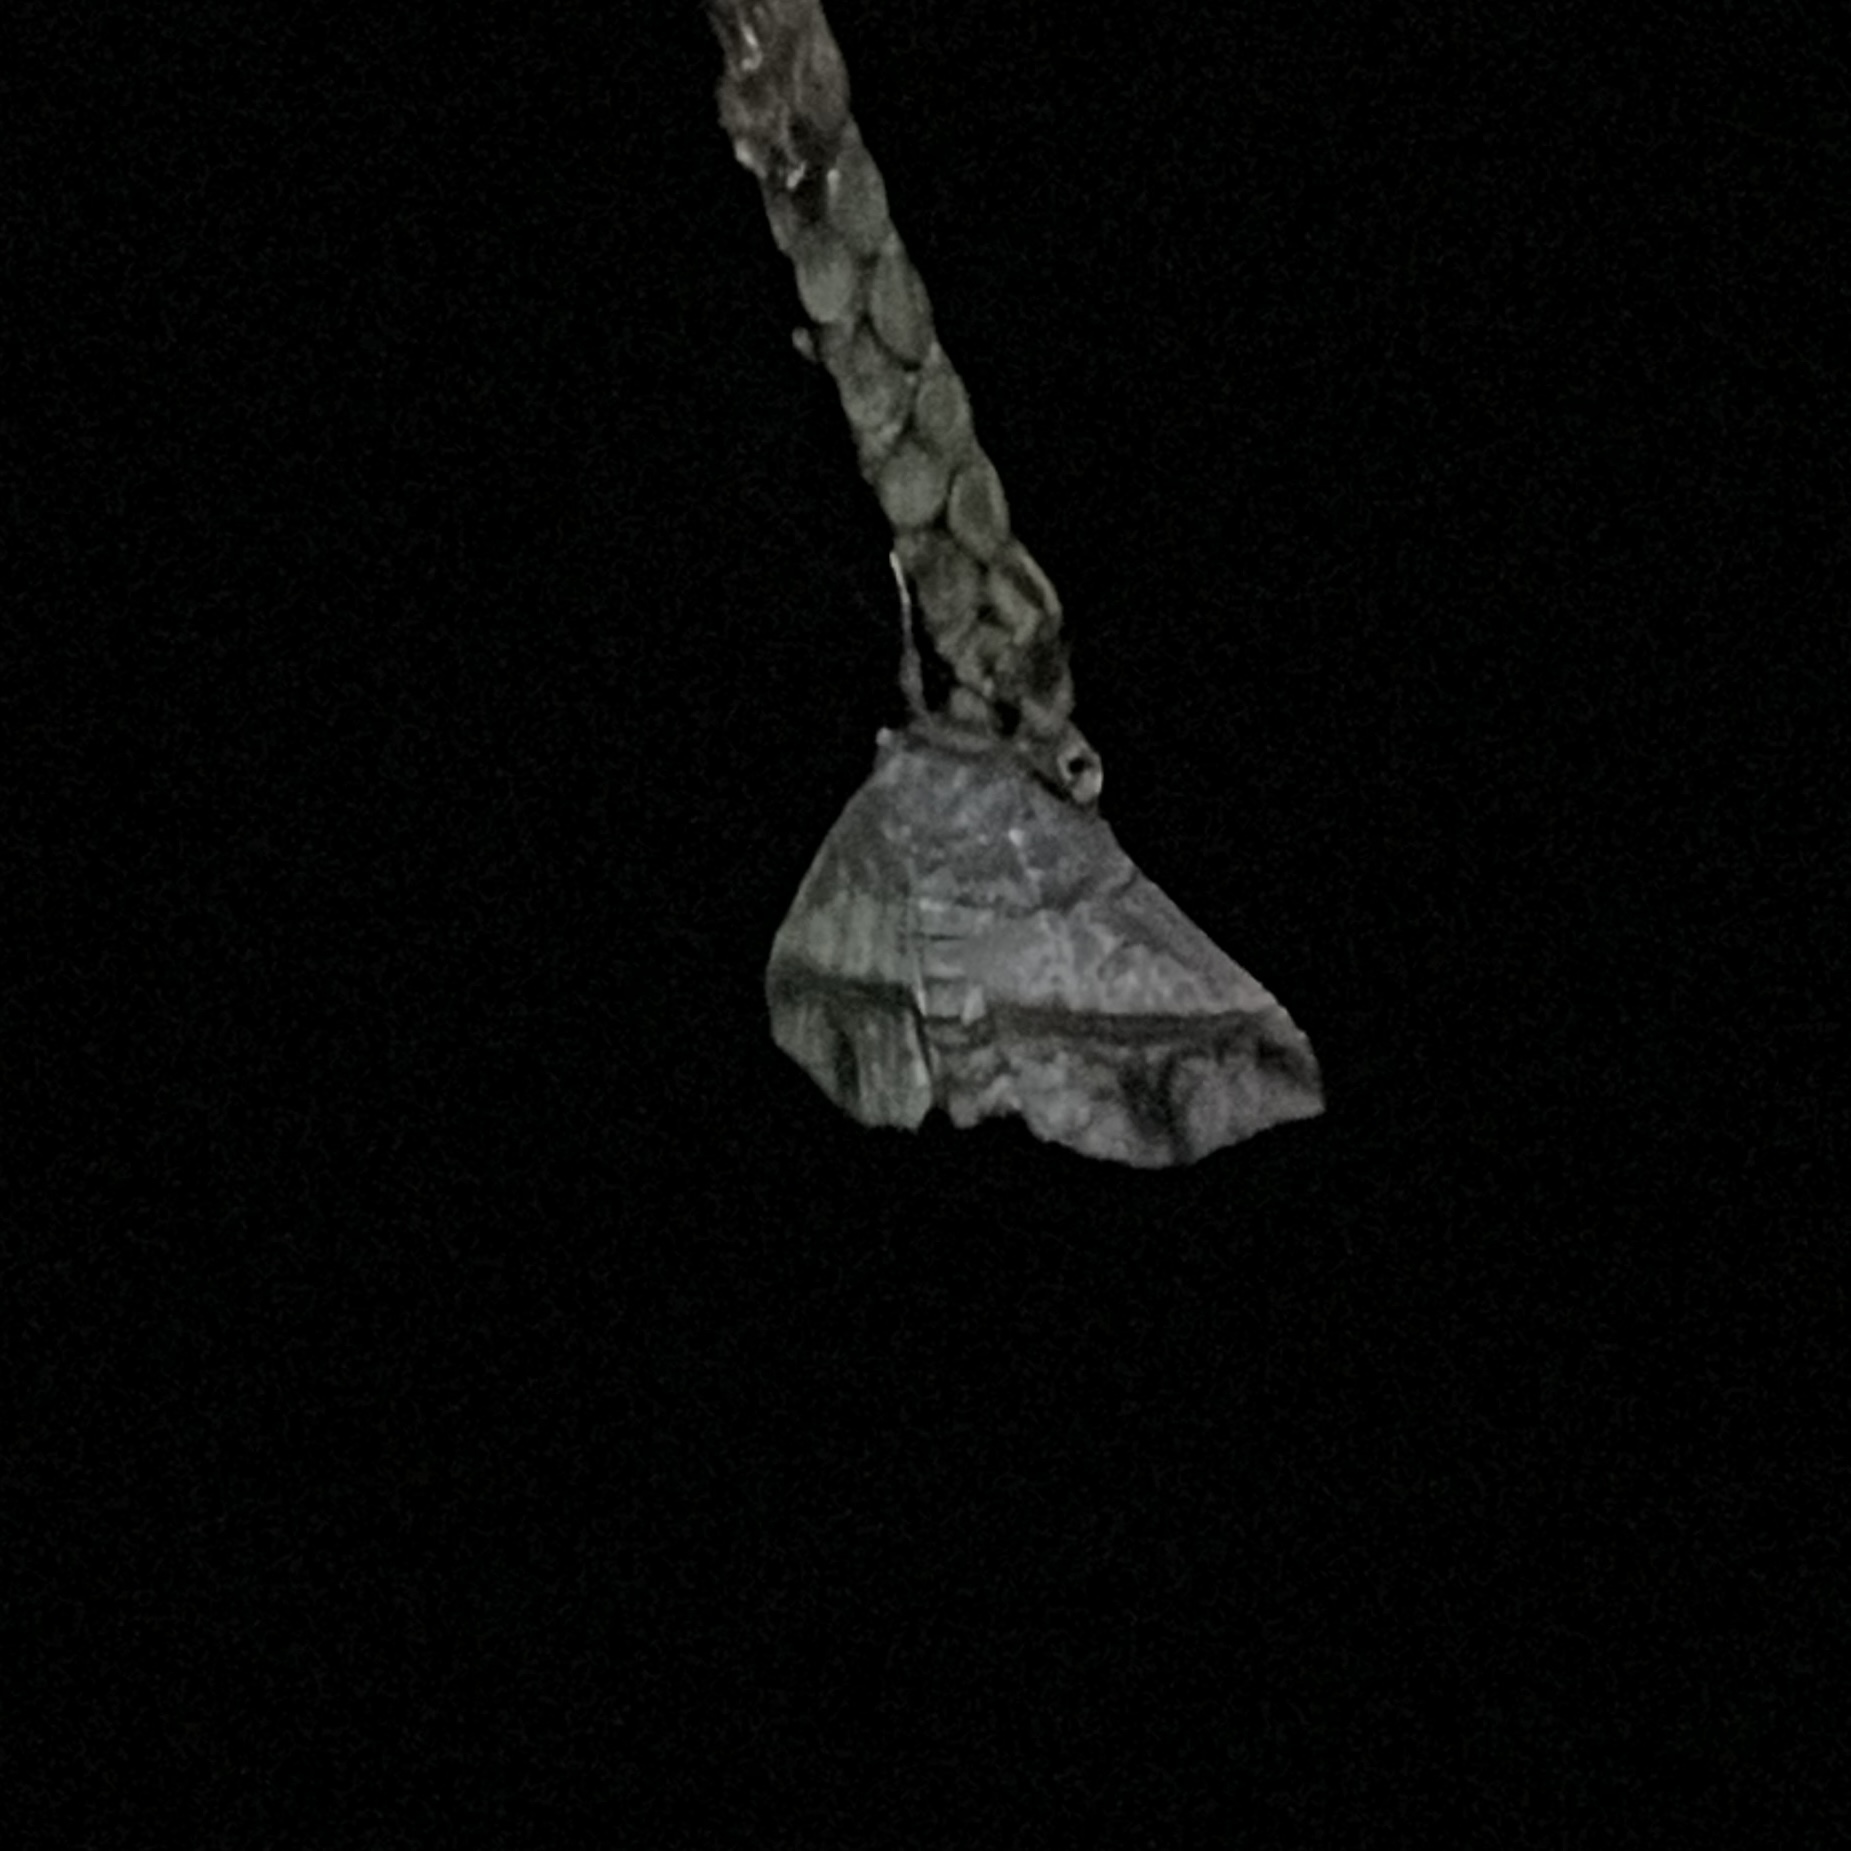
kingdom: Animalia
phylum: Arthropoda
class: Insecta
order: Lepidoptera
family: Erebidae
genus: Antiblemma
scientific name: Antiblemma acclinalis
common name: Moth
